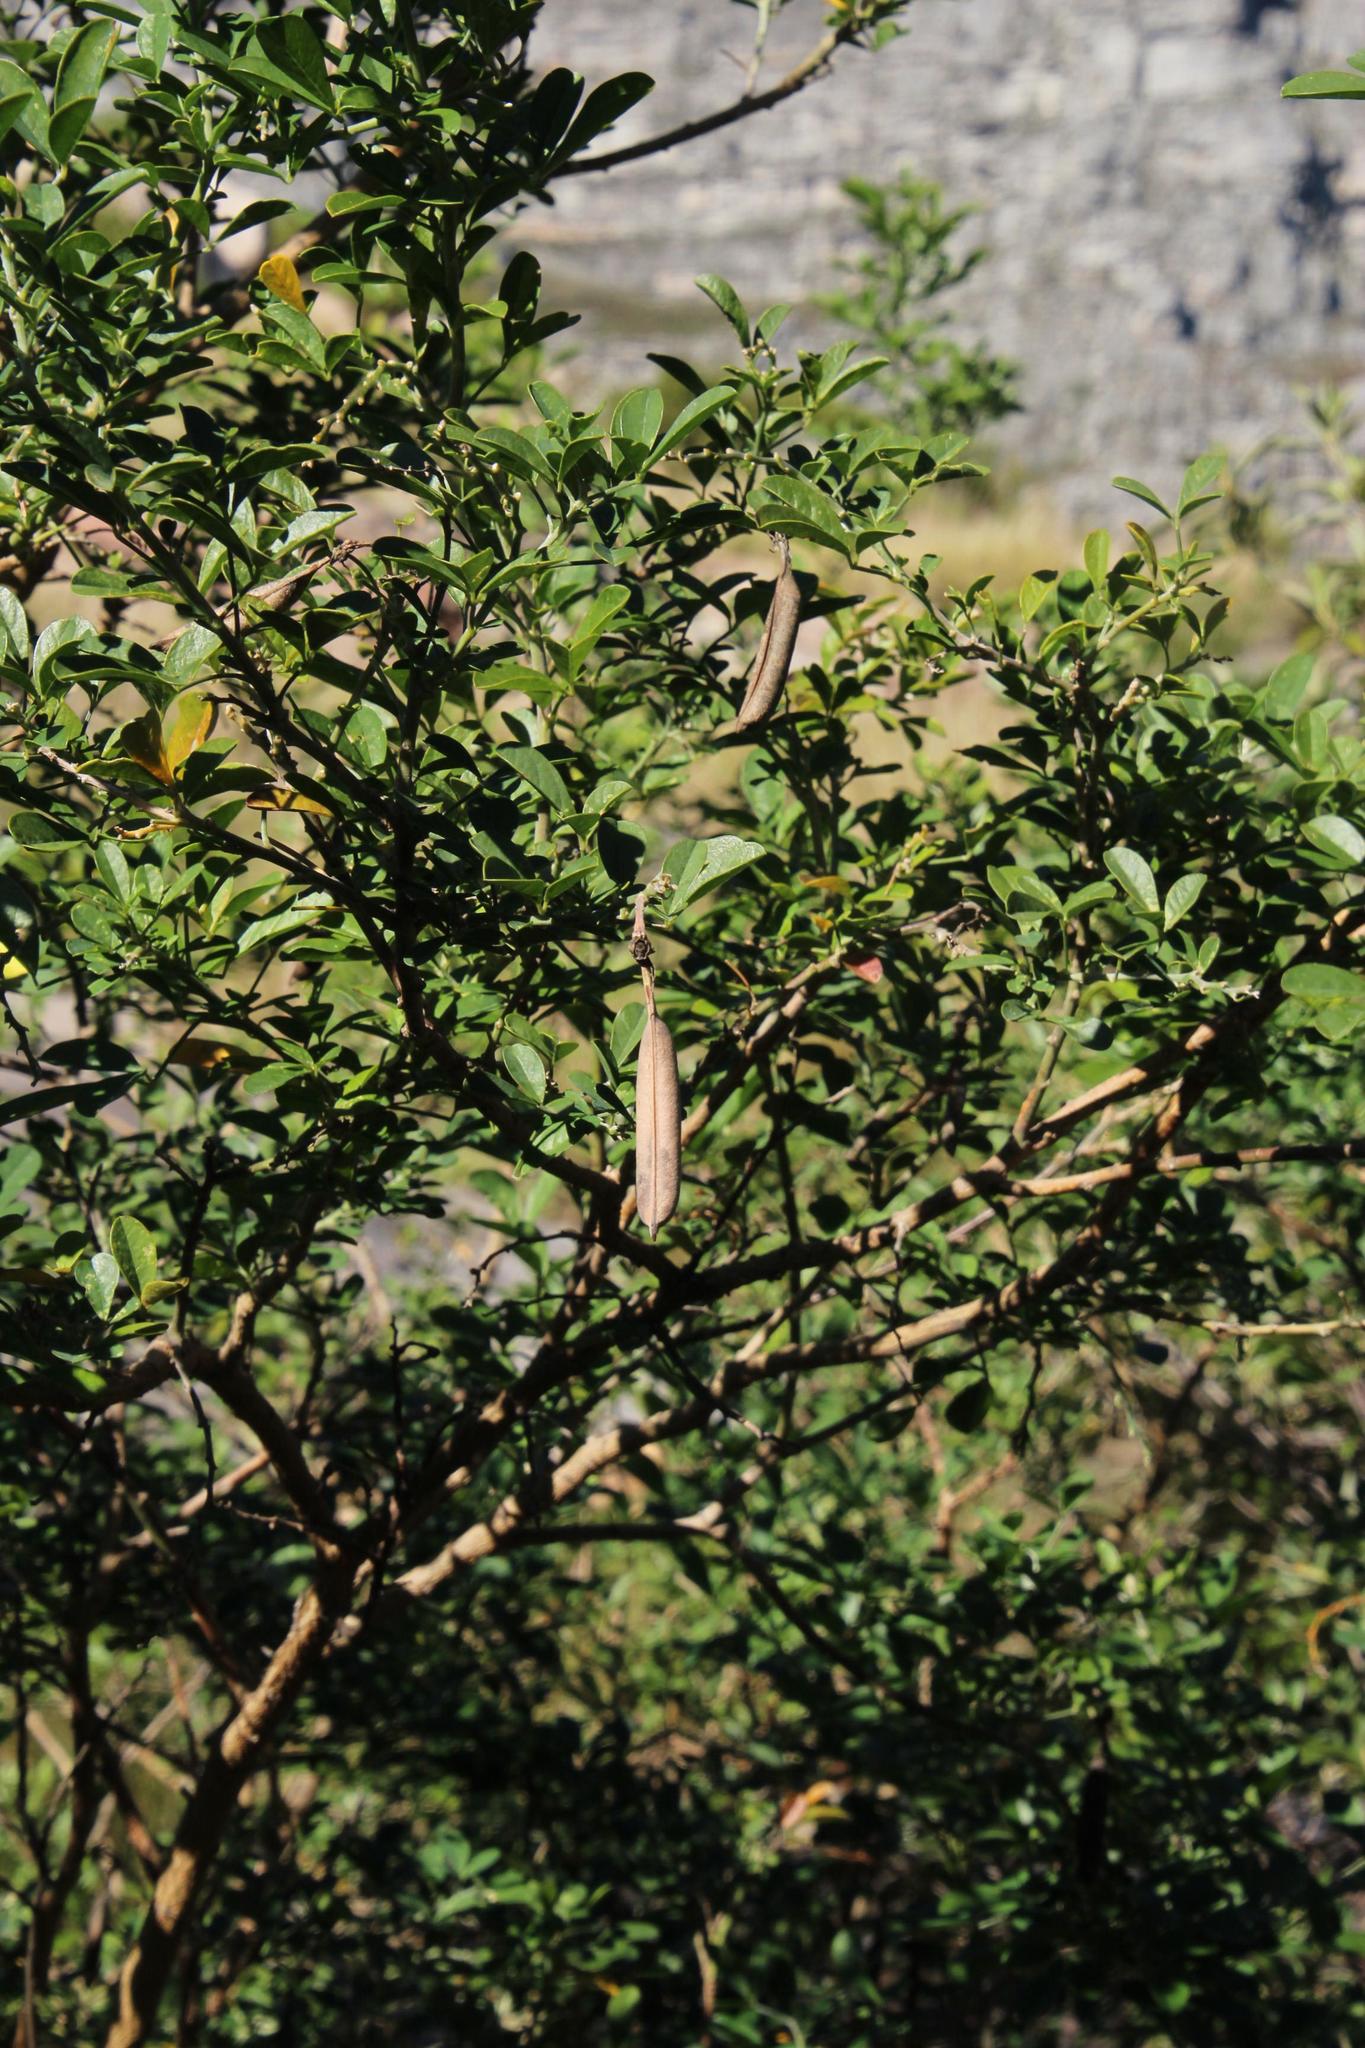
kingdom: Plantae
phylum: Tracheophyta
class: Magnoliopsida
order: Fabales
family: Fabaceae
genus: Crotalaria
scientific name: Crotalaria capensis
